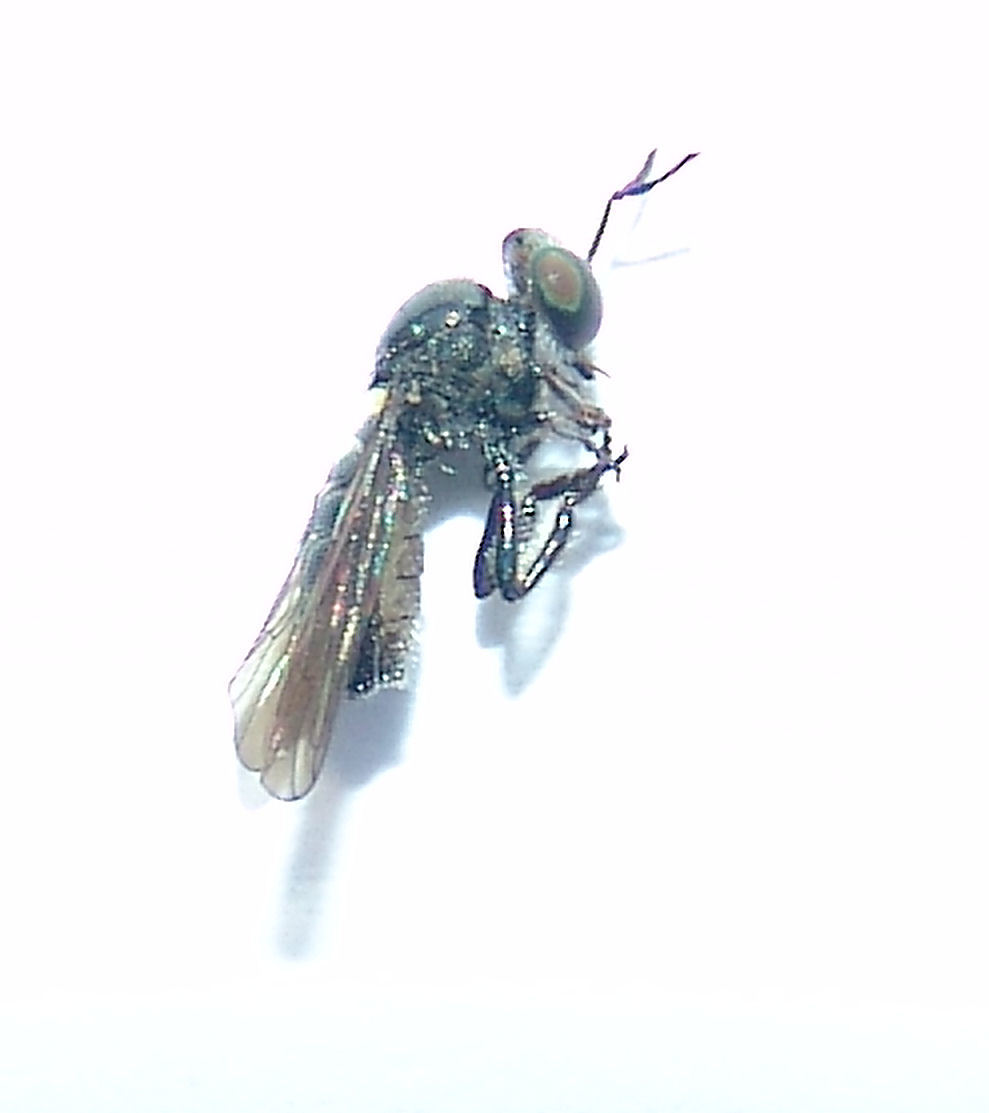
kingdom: Animalia
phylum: Arthropoda
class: Insecta
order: Diptera
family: Asilidae
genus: Cerotainia
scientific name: Cerotainia
